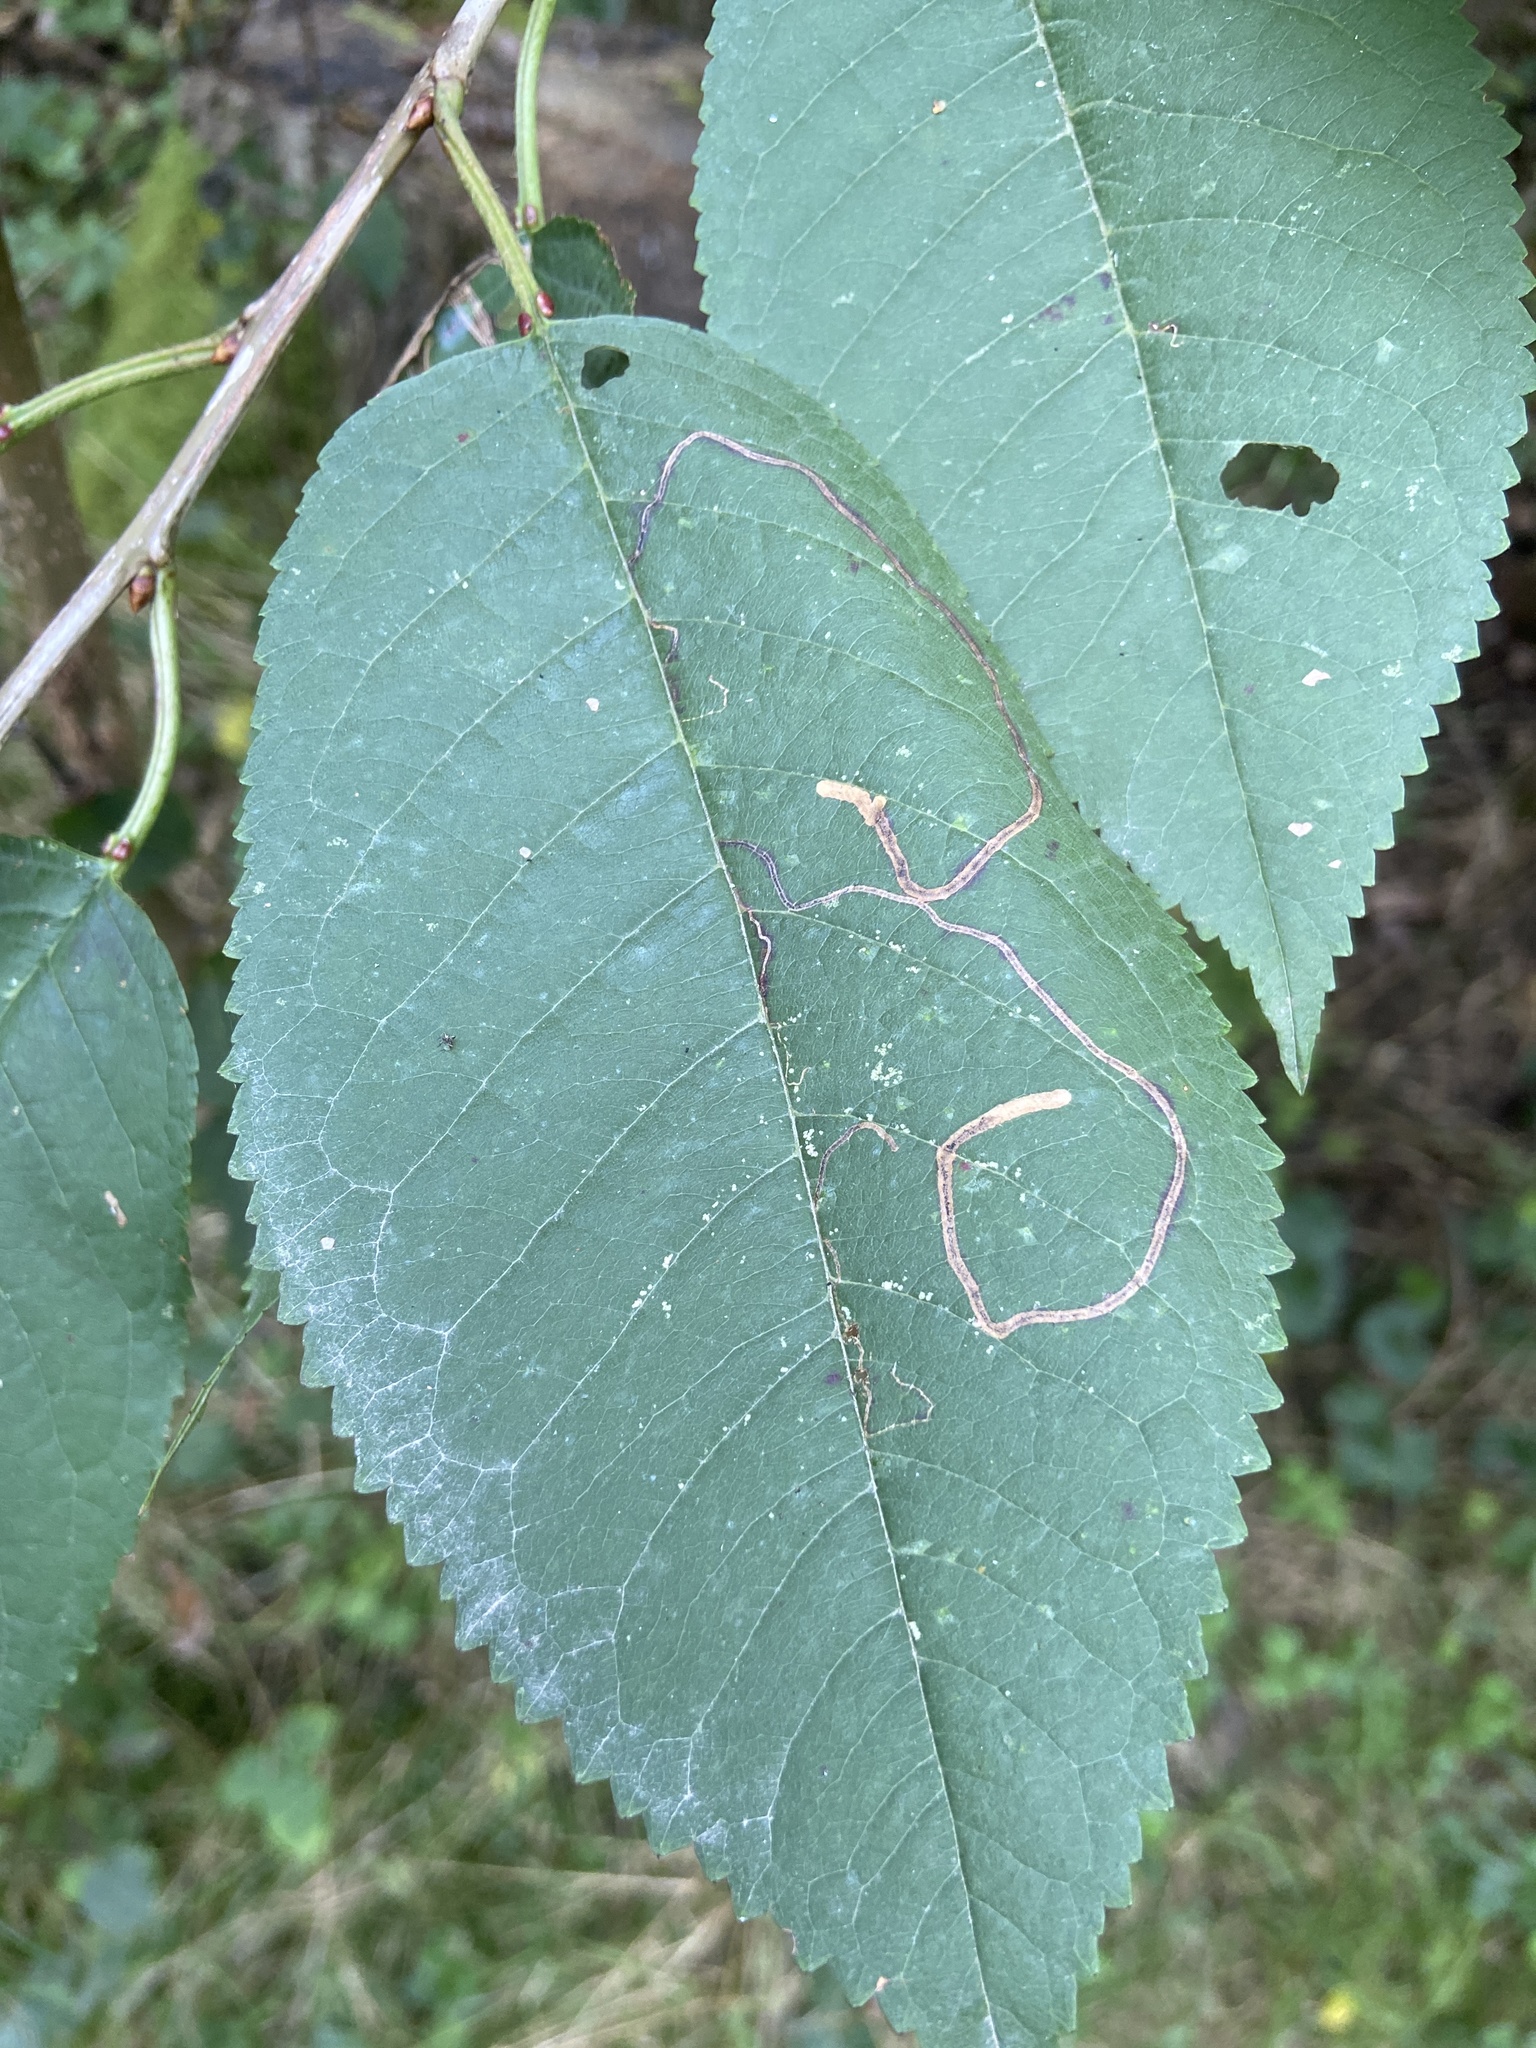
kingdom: Animalia
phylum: Arthropoda
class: Insecta
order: Lepidoptera
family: Lyonetiidae
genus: Lyonetia
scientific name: Lyonetia clerkella
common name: Apple leaf miner
